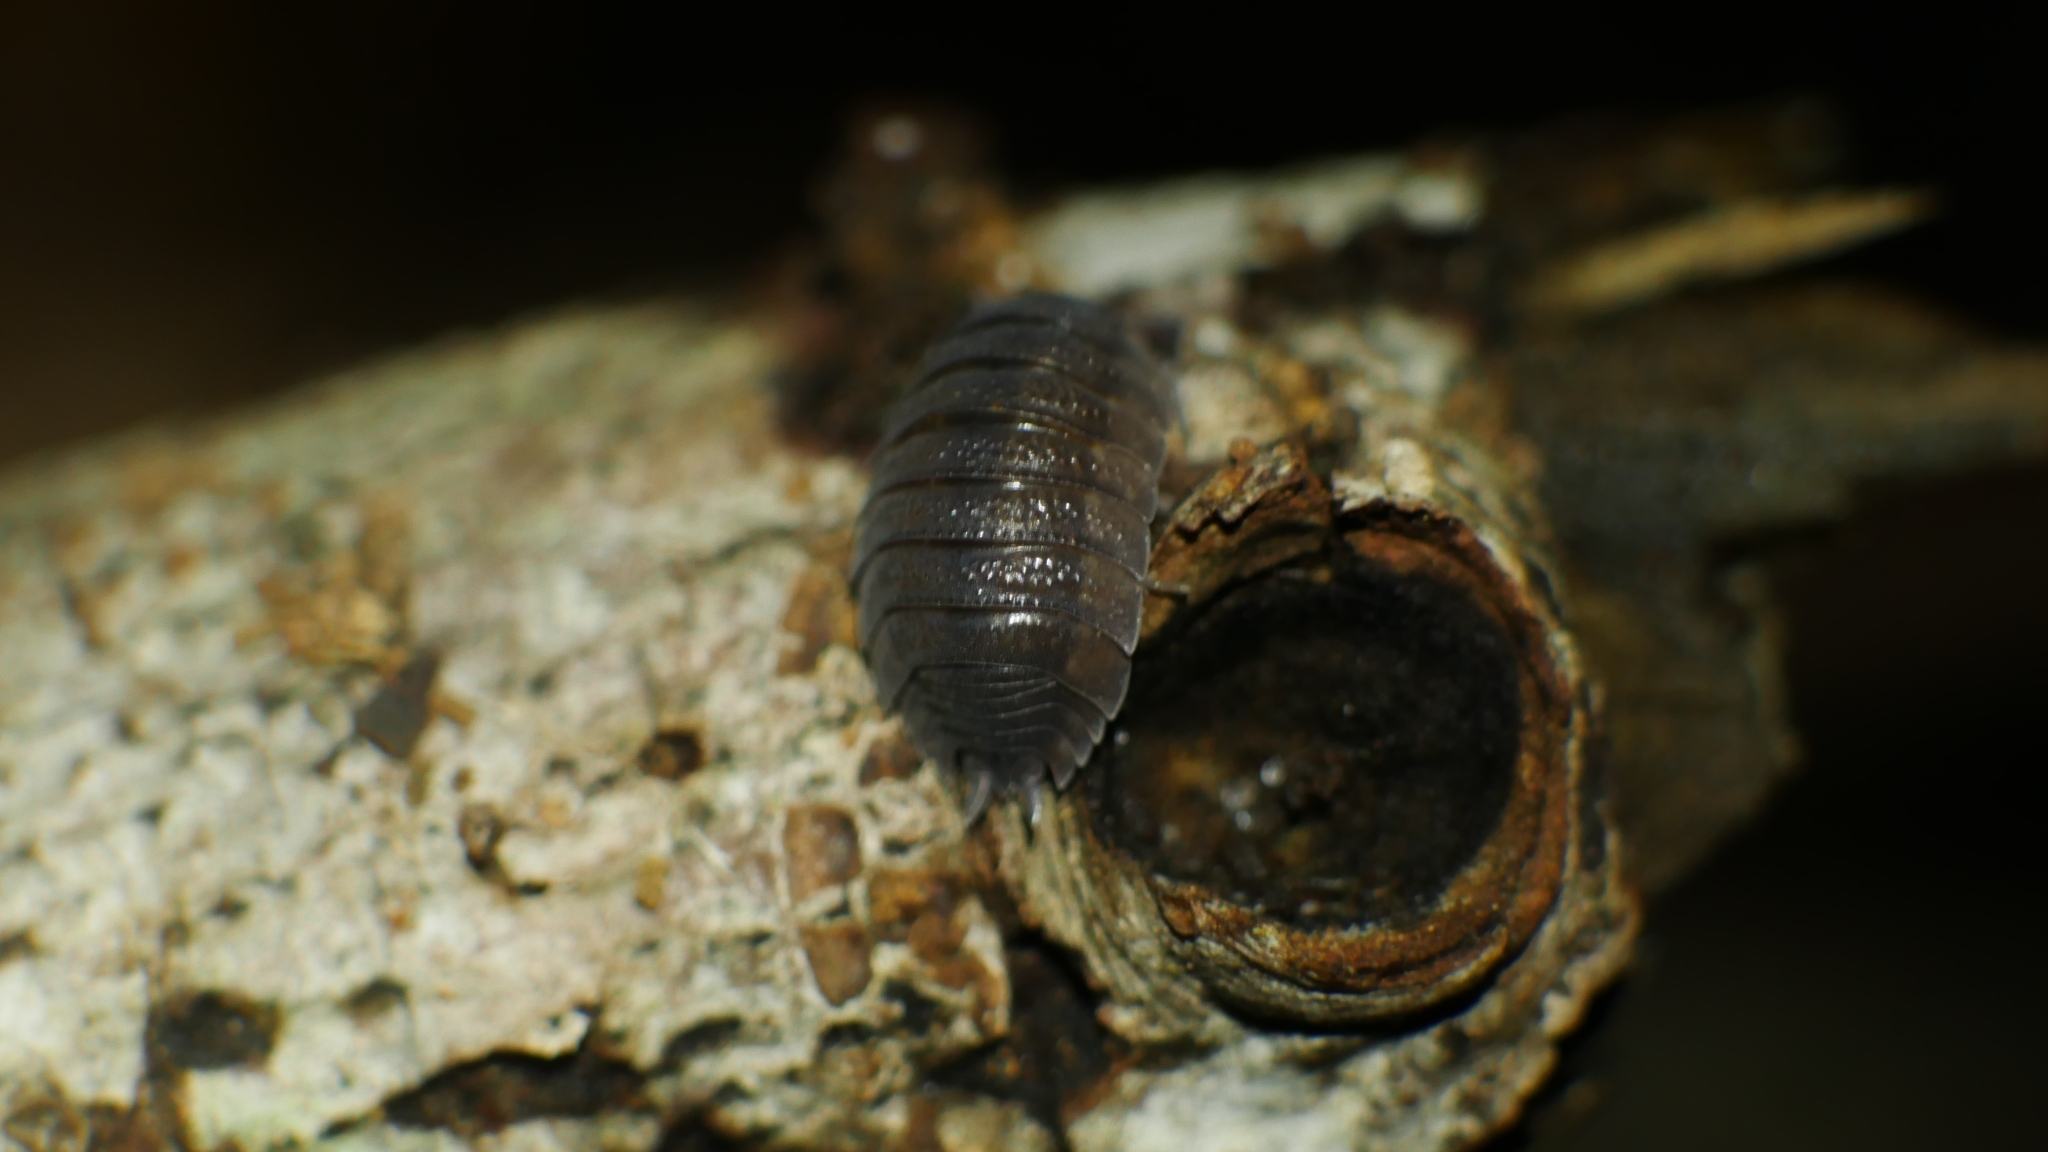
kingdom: Animalia
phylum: Arthropoda
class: Malacostraca
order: Isopoda
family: Porcellionidae
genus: Porcellio
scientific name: Porcellio scaber
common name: Common rough woodlouse
